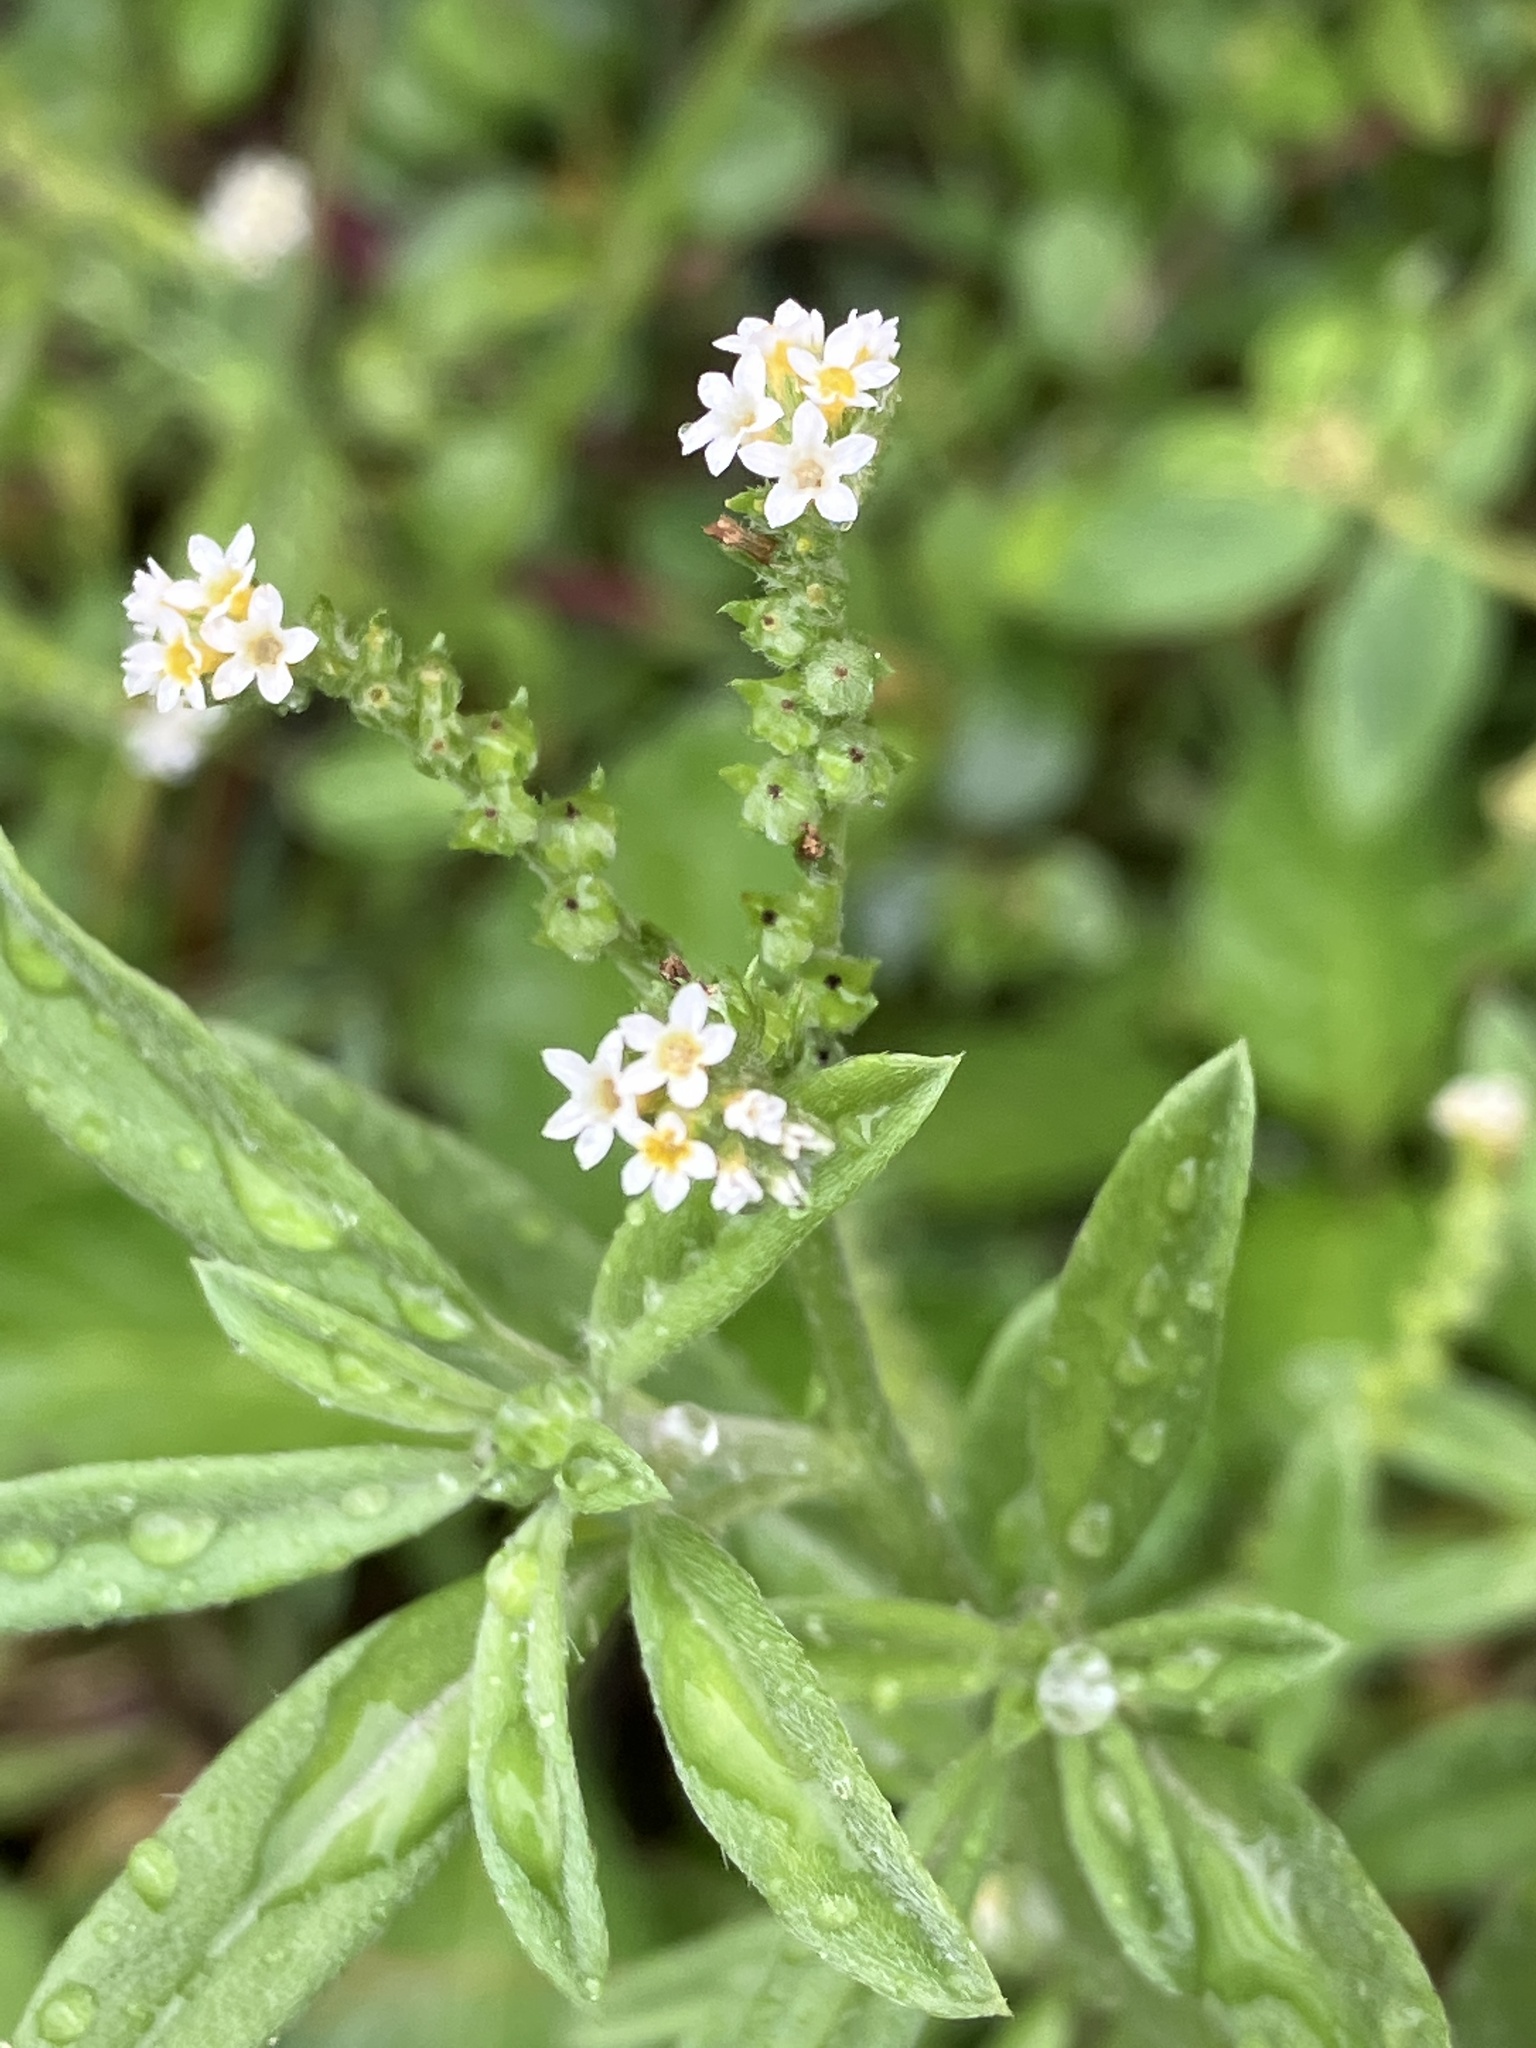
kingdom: Plantae
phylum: Tracheophyta
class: Magnoliopsida
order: Boraginales
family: Heliotropiaceae
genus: Euploca
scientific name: Euploca procumbens
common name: Fourspike heliotrope
